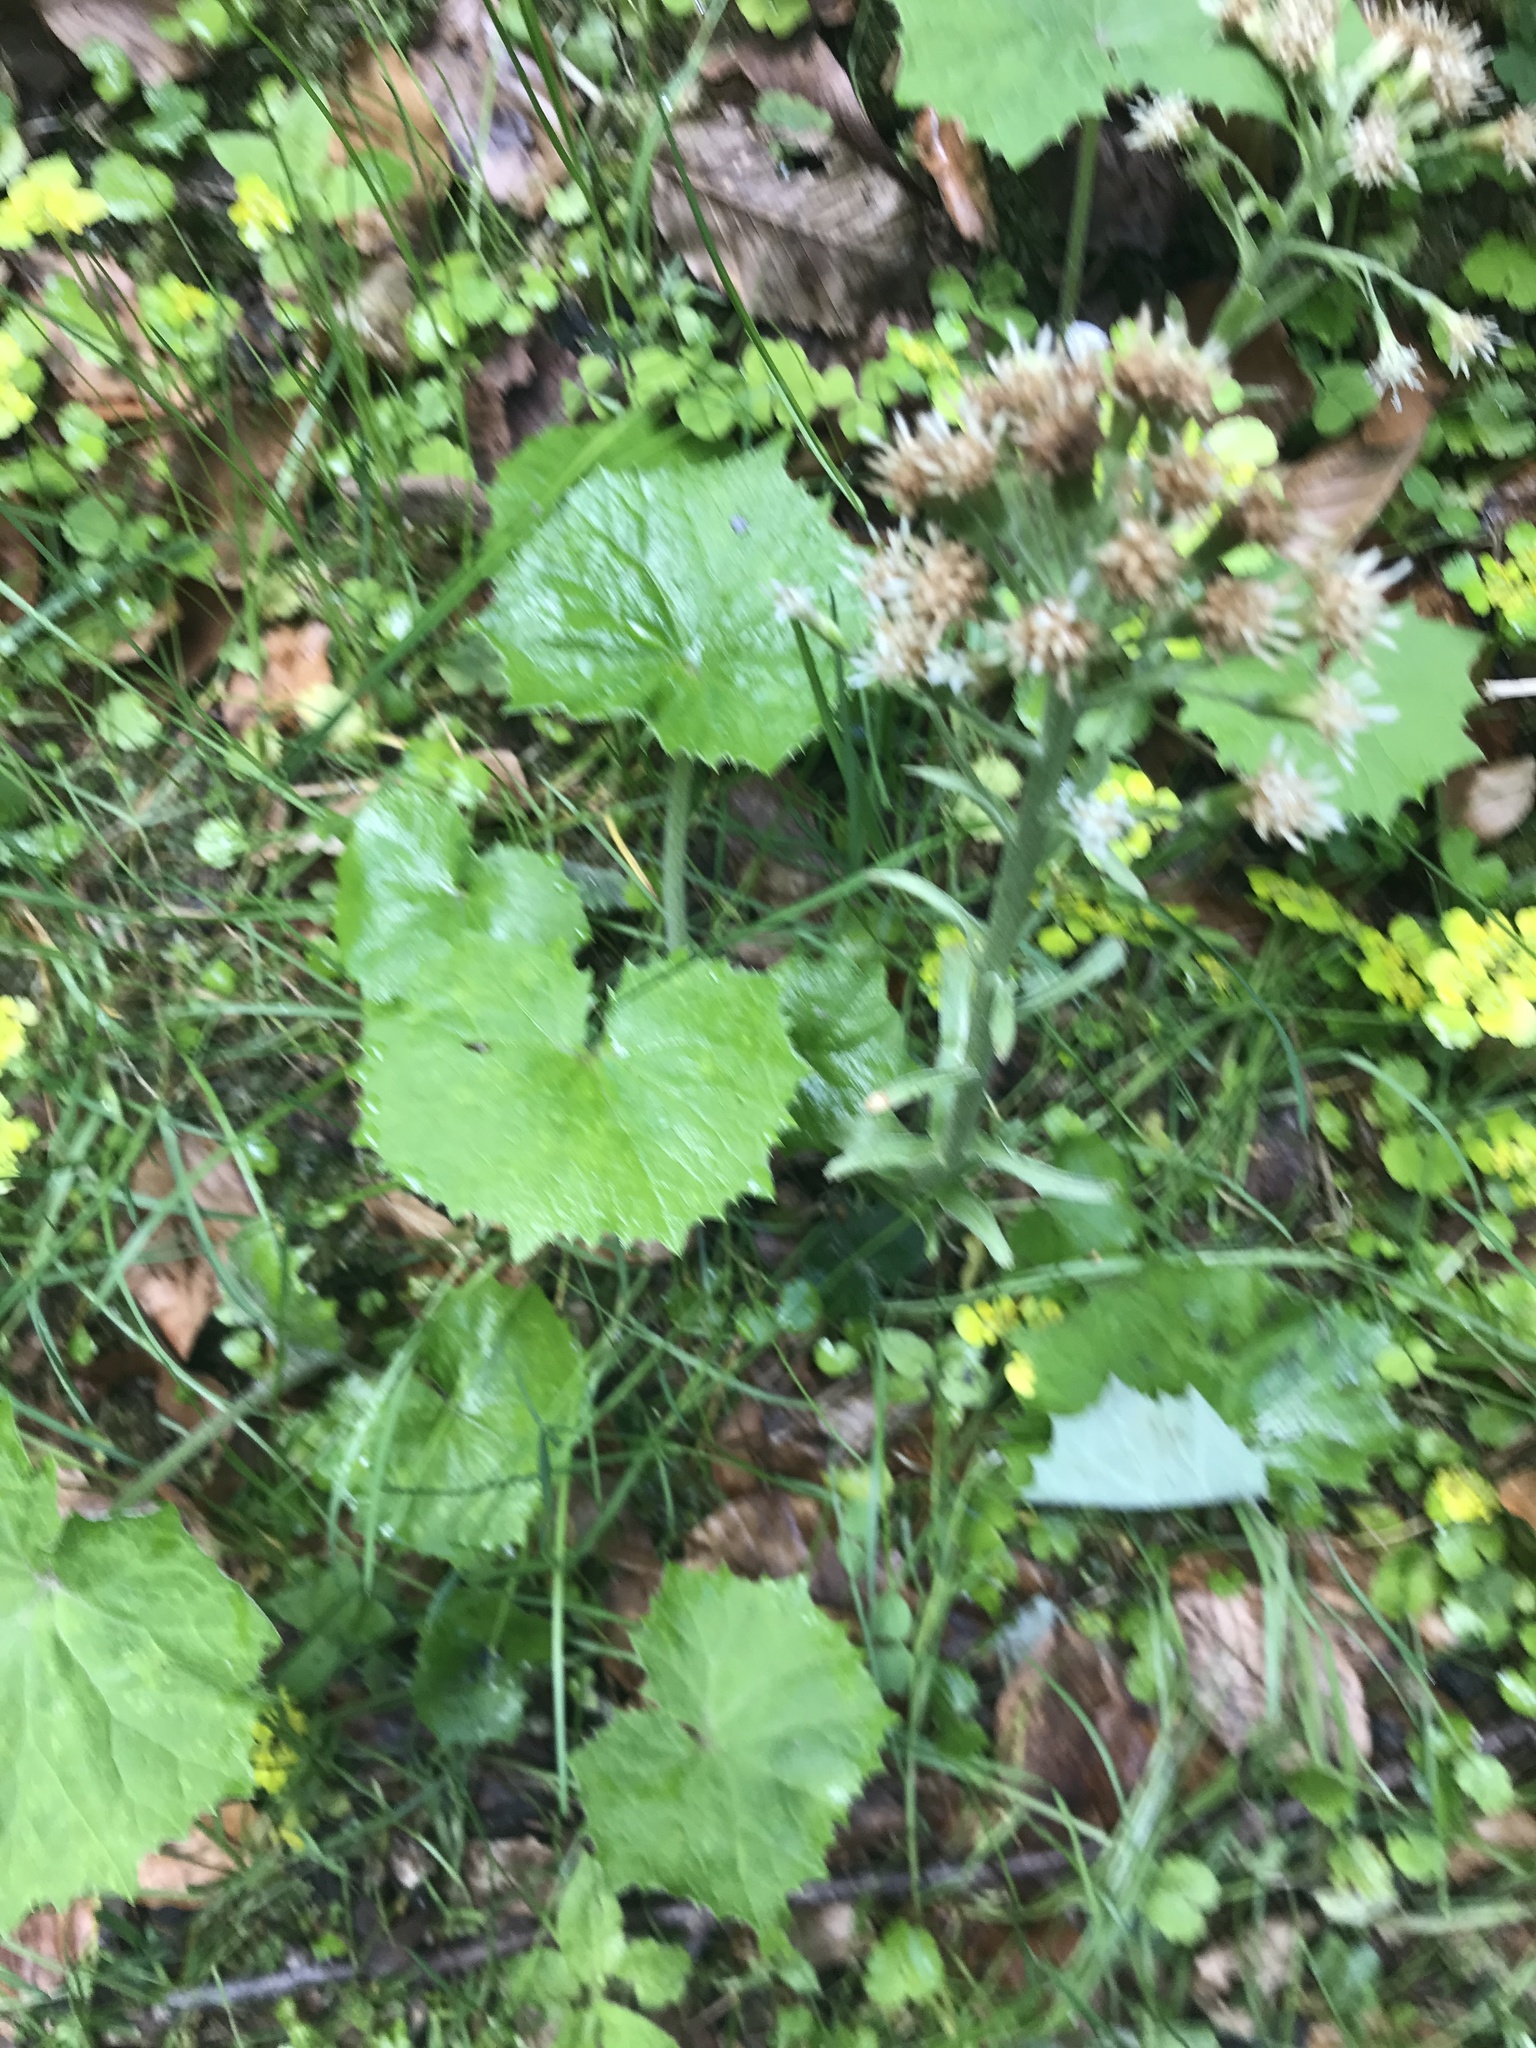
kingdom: Plantae
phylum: Tracheophyta
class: Magnoliopsida
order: Asterales
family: Asteraceae
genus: Petasites
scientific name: Petasites albus
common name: White butterbur
